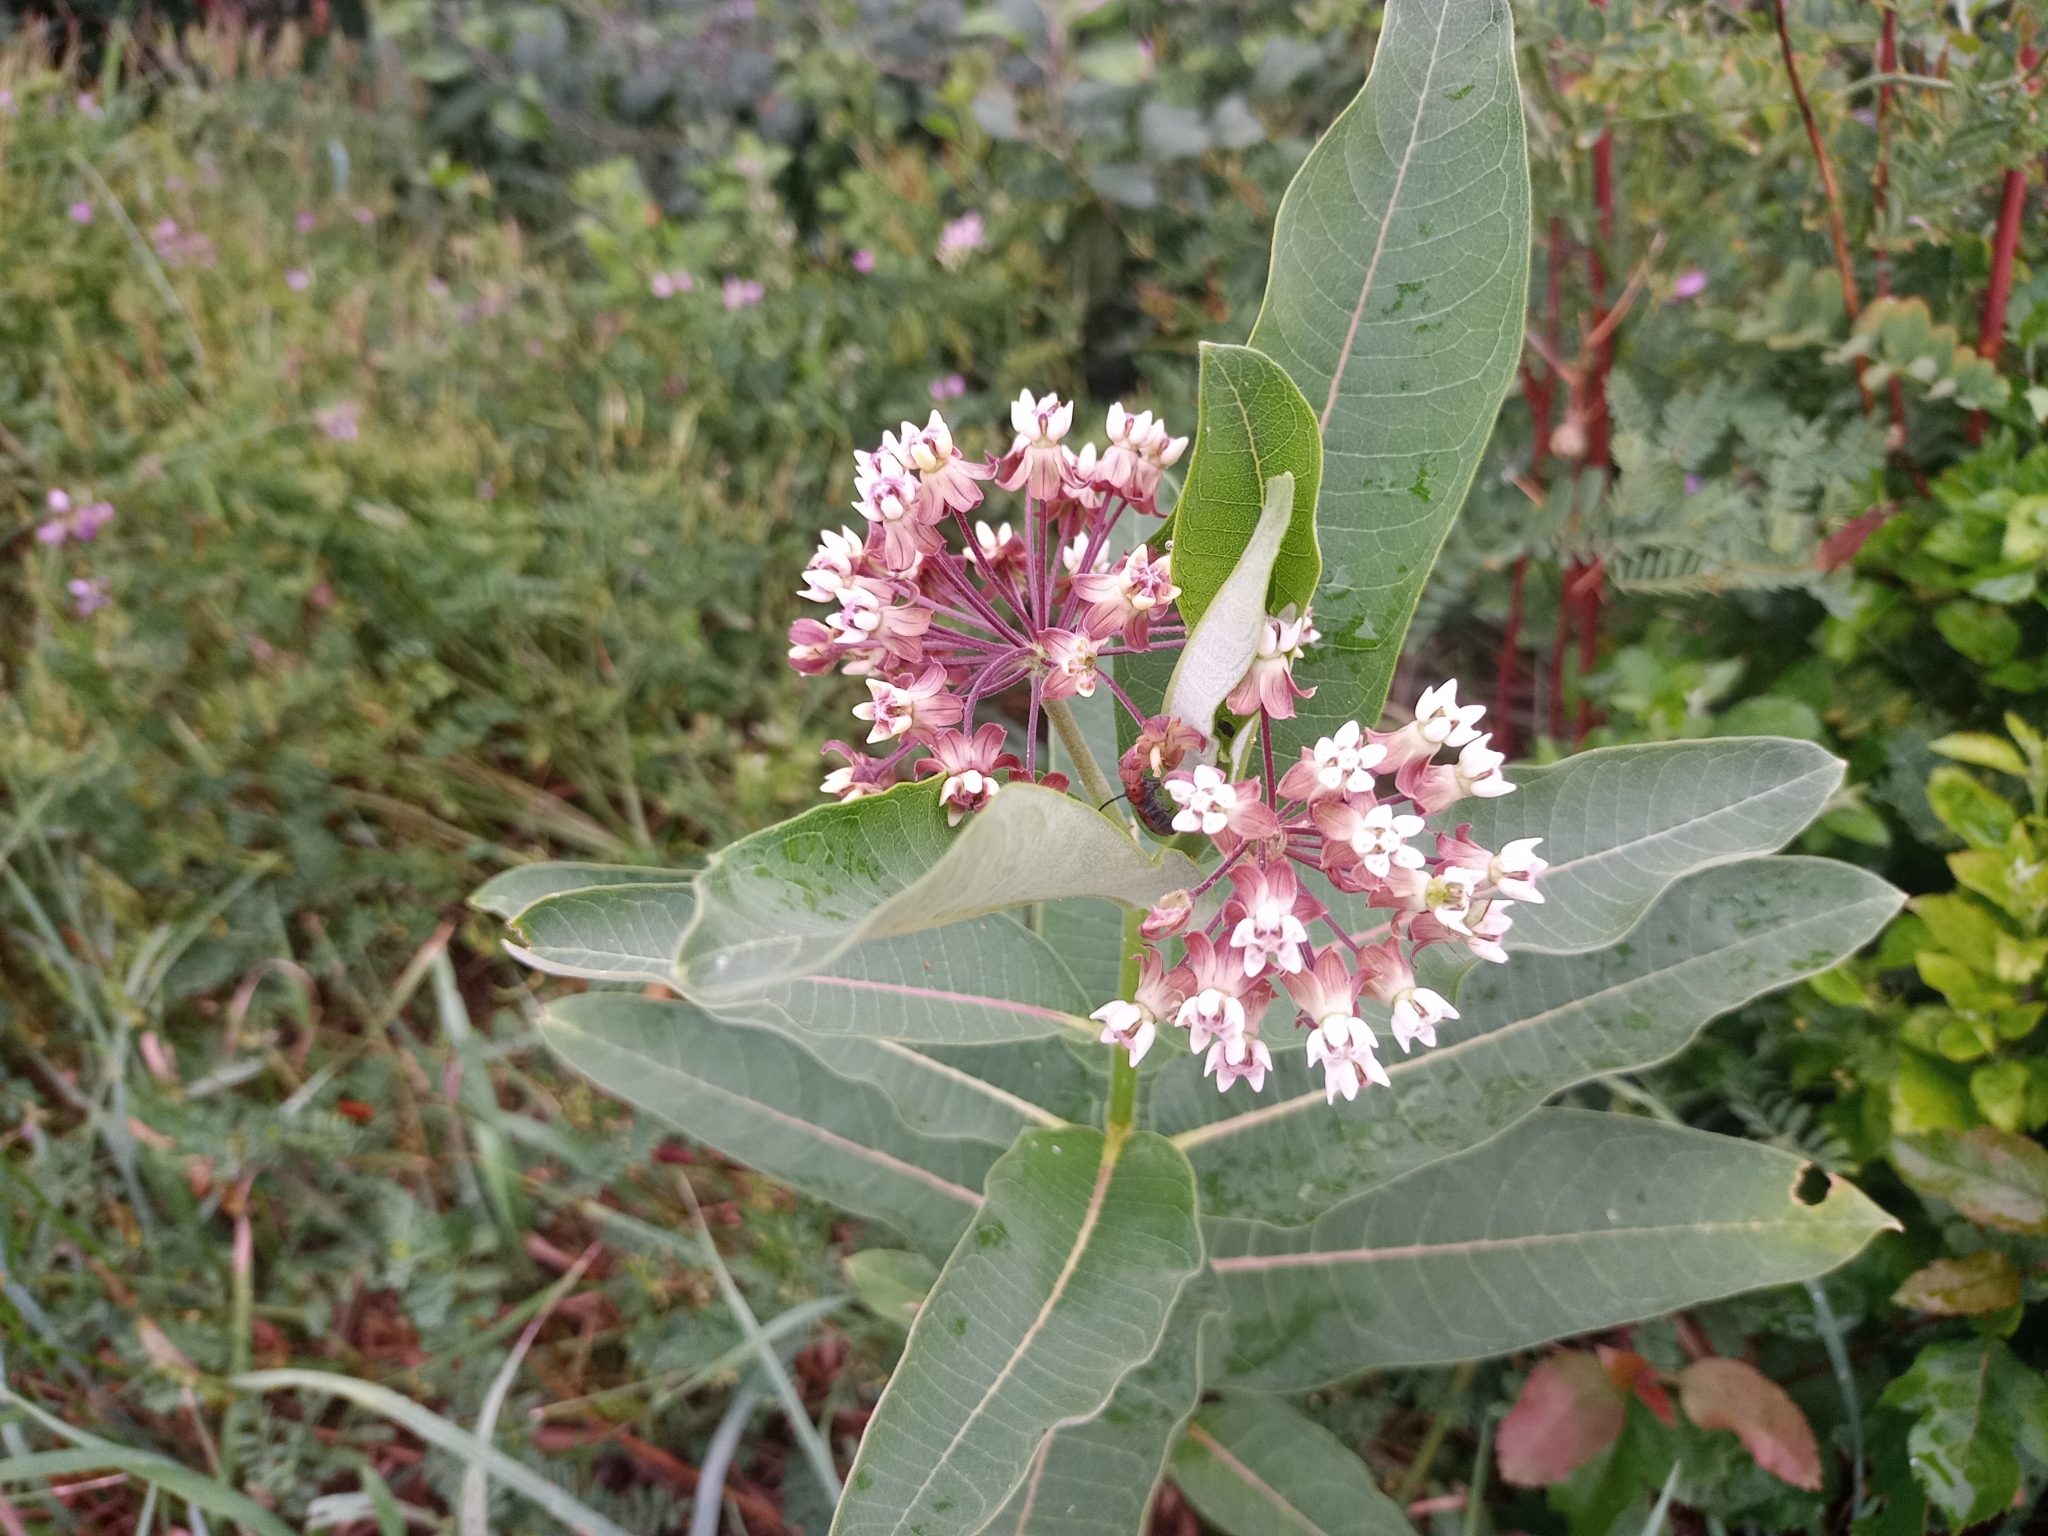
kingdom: Plantae
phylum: Tracheophyta
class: Magnoliopsida
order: Gentianales
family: Apocynaceae
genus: Asclepias
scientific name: Asclepias syriaca
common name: Common milkweed
